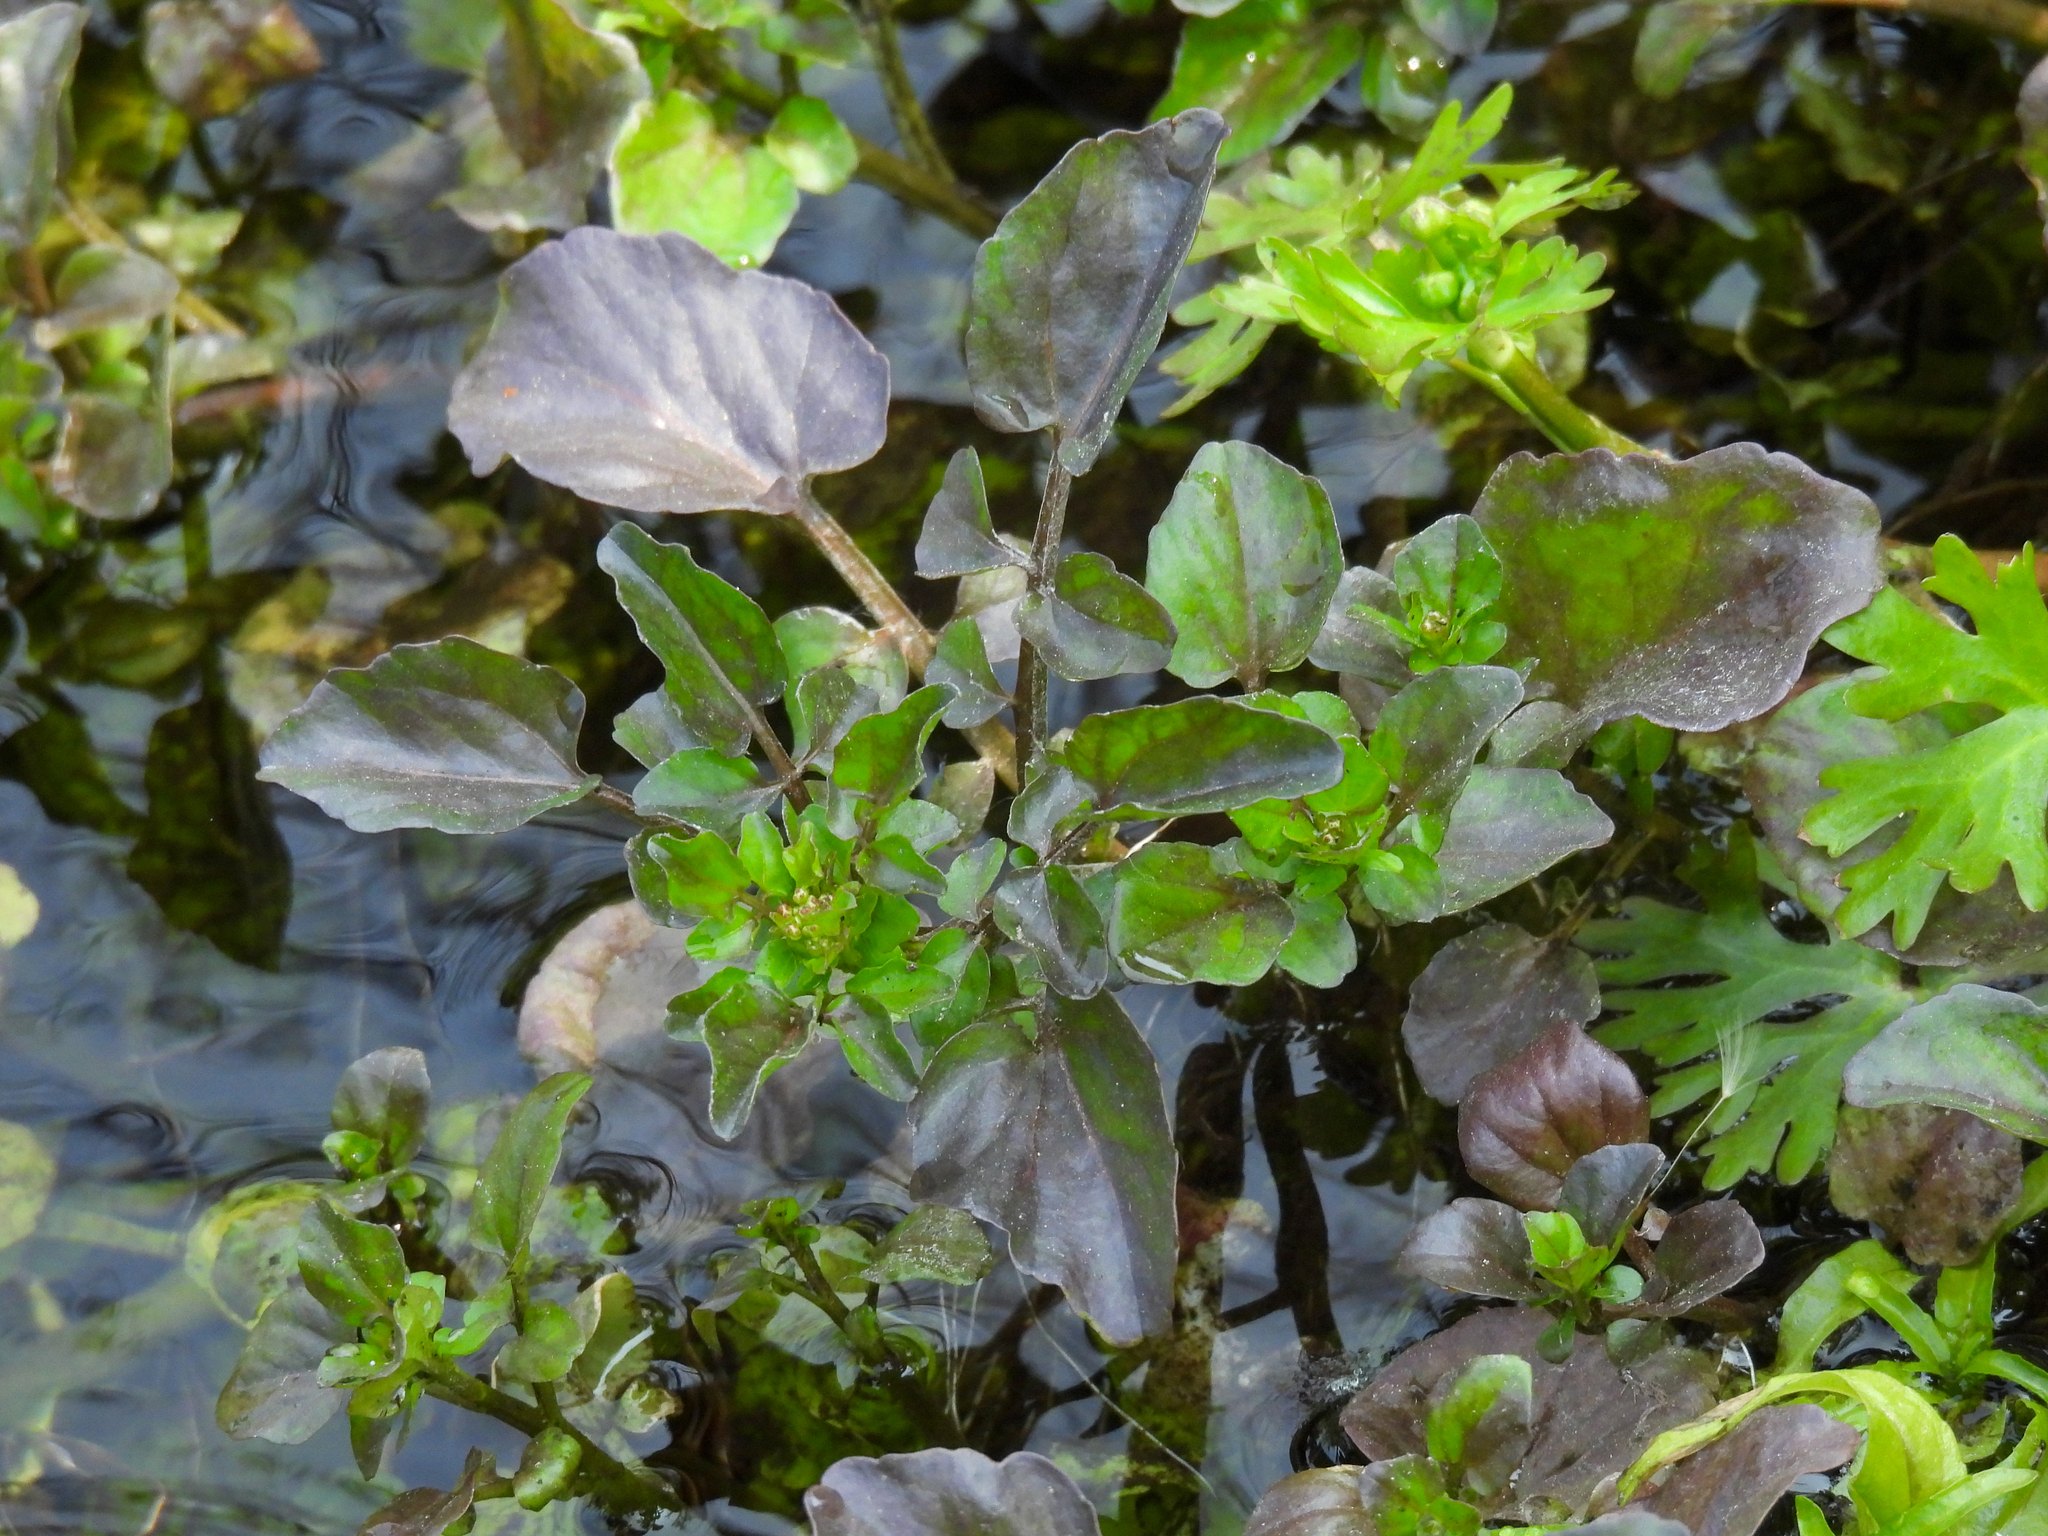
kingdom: Plantae
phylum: Tracheophyta
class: Magnoliopsida
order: Brassicales
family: Brassicaceae
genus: Nasturtium
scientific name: Nasturtium officinale
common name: Watercress
